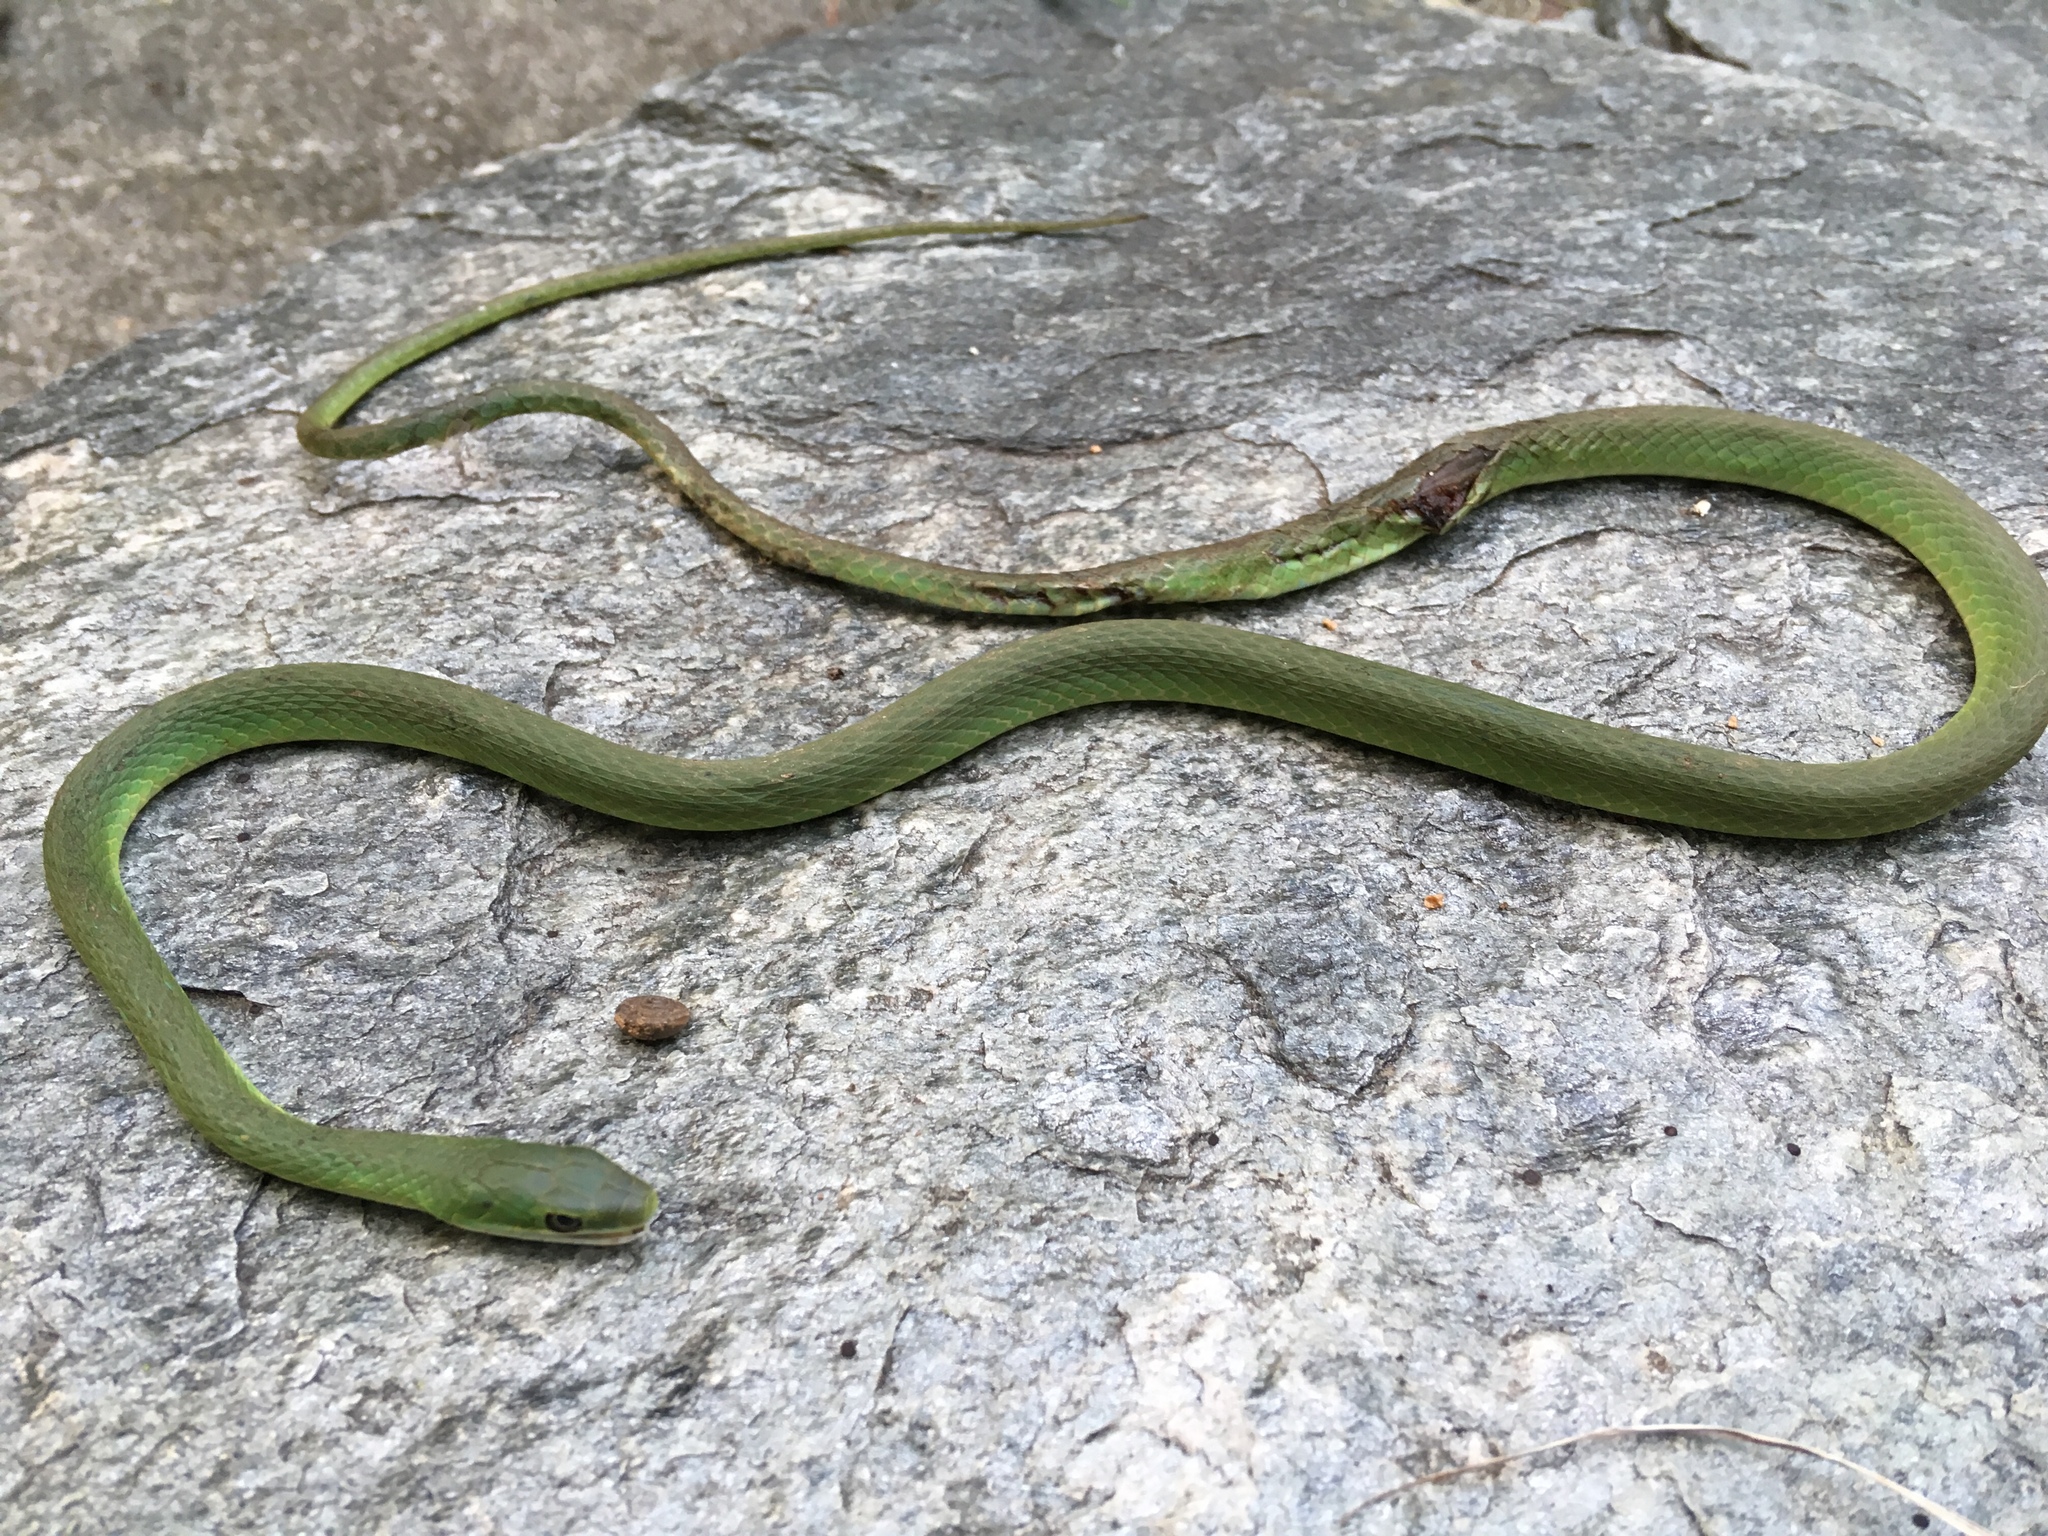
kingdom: Animalia
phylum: Chordata
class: Squamata
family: Colubridae
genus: Opheodrys
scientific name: Opheodrys aestivus
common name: Rough greensnake
